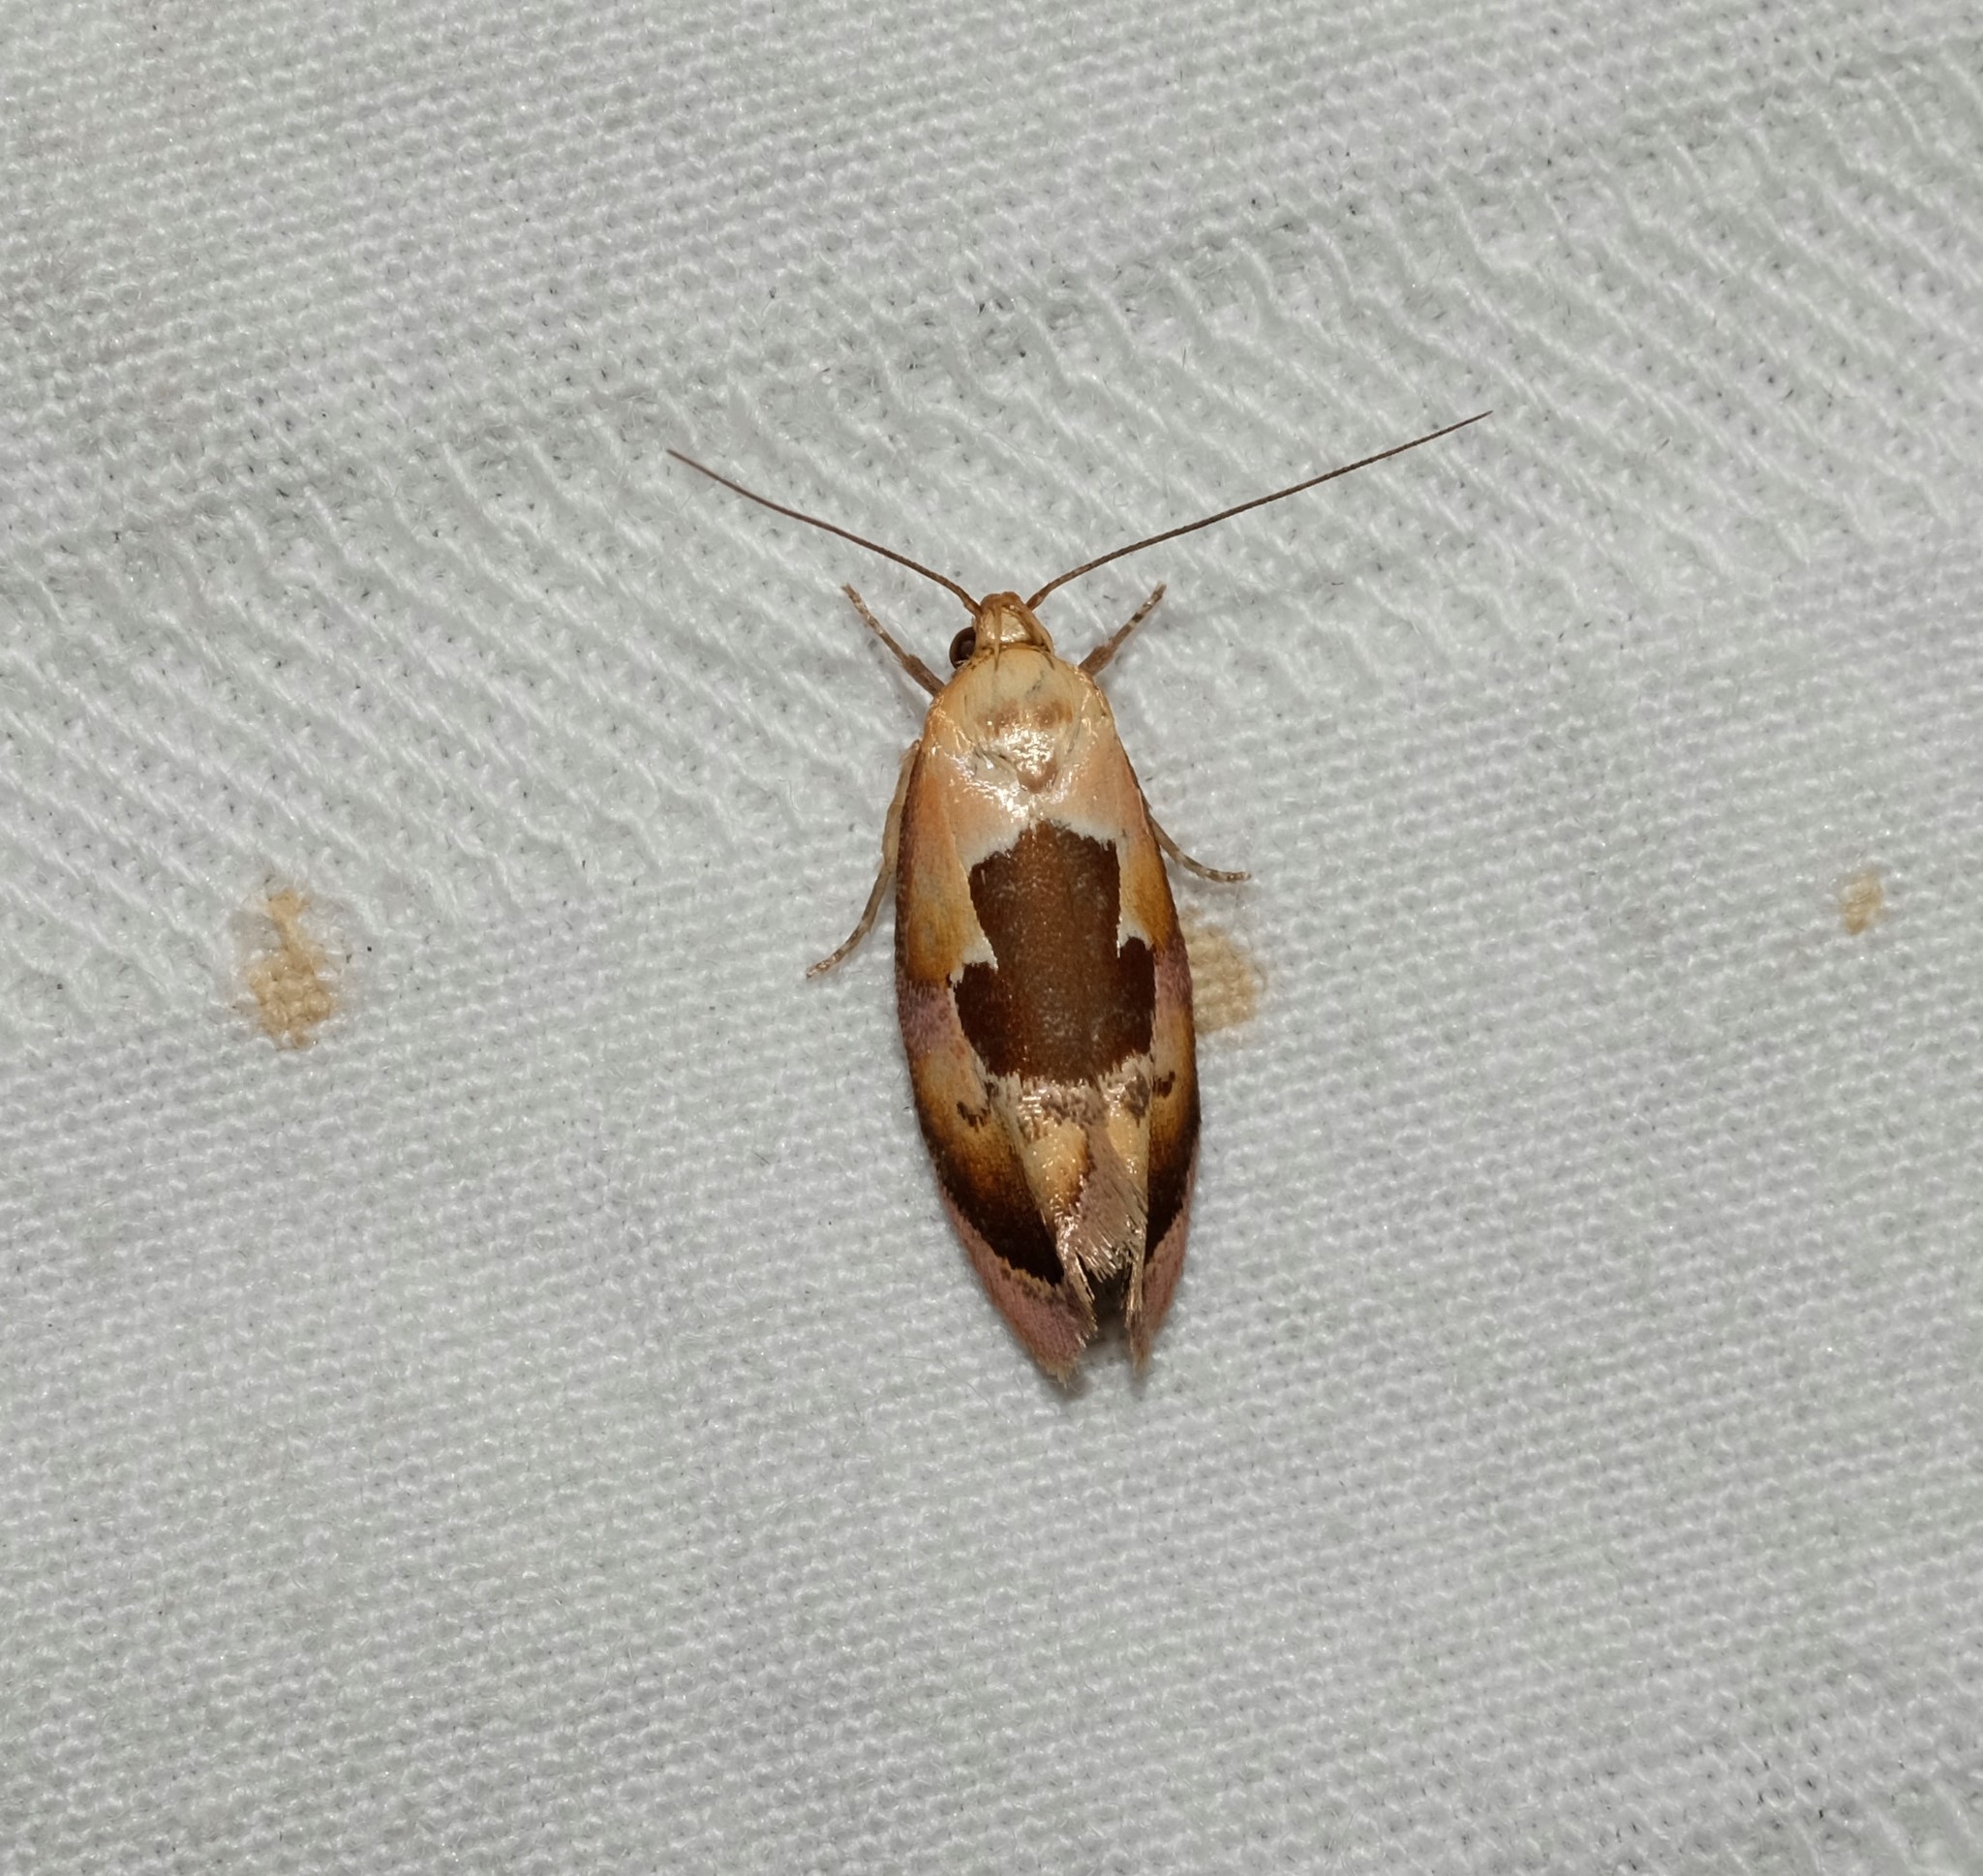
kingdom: Animalia
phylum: Arthropoda
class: Insecta
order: Lepidoptera
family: Oecophoridae
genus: Hoplomorpha
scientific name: Hoplomorpha camelaea
